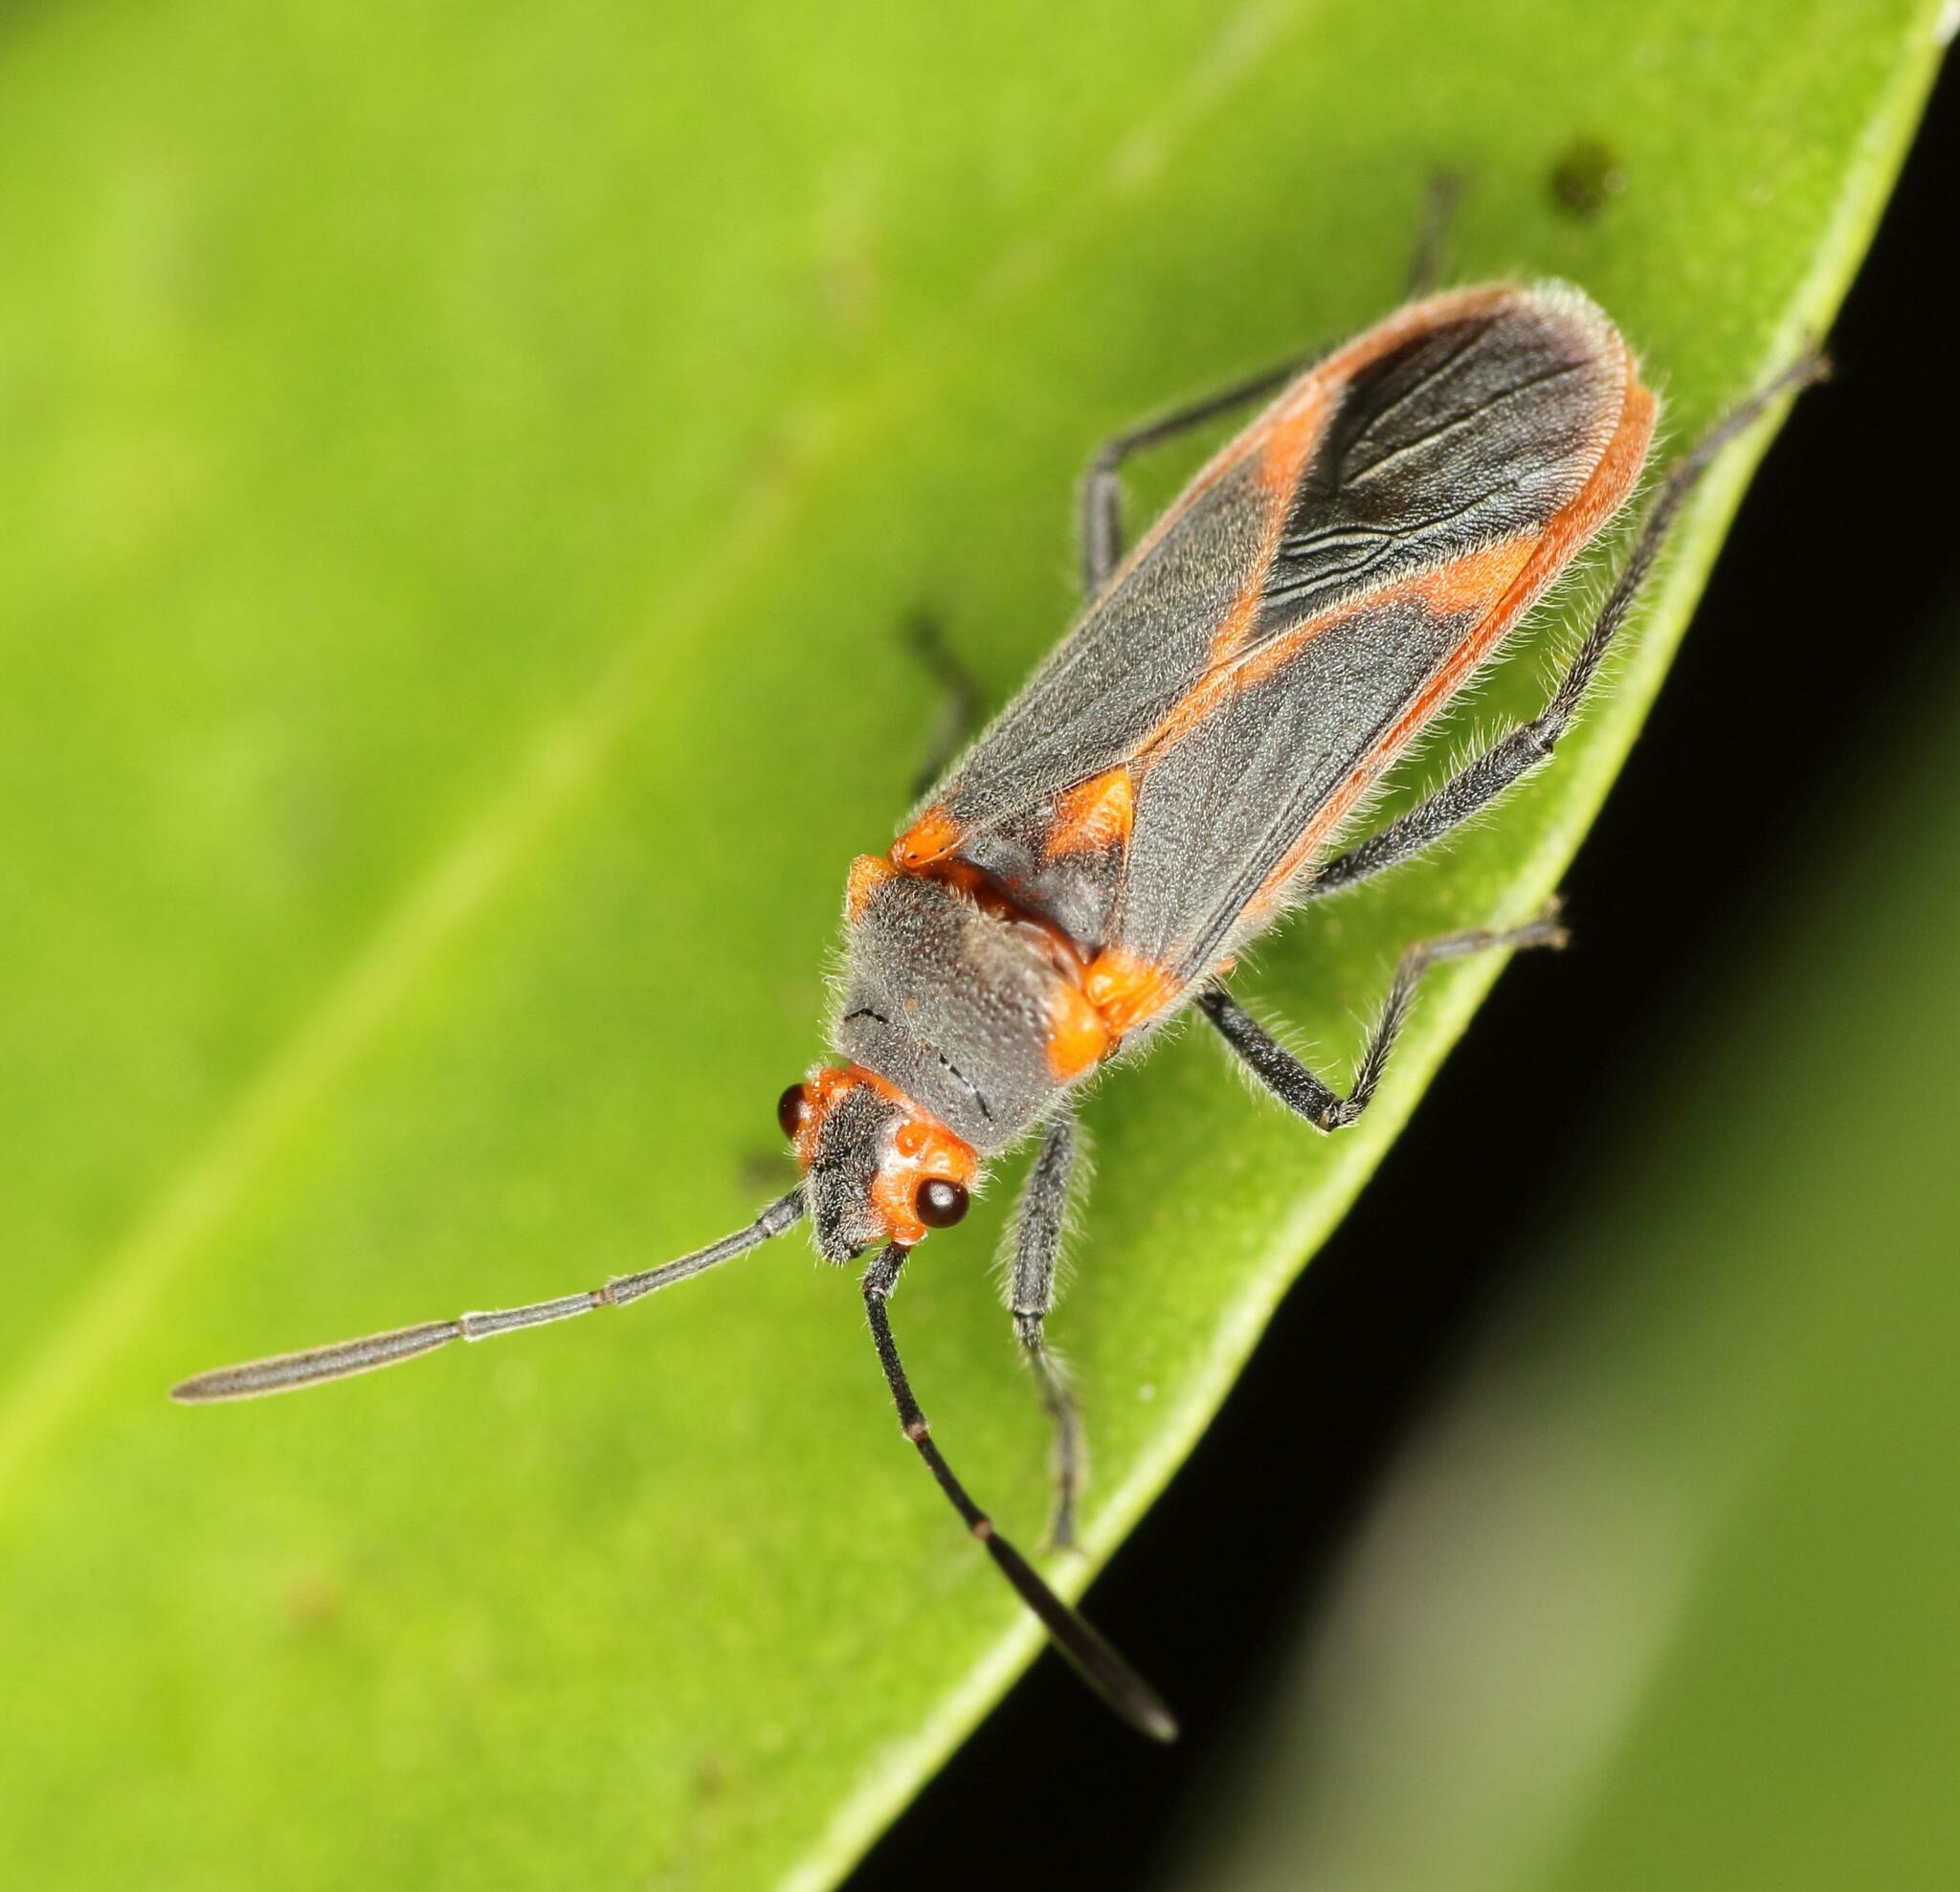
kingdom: Animalia
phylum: Arthropoda
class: Insecta
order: Hemiptera
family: Lygaeidae
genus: Caenocoris
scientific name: Caenocoris nerii
